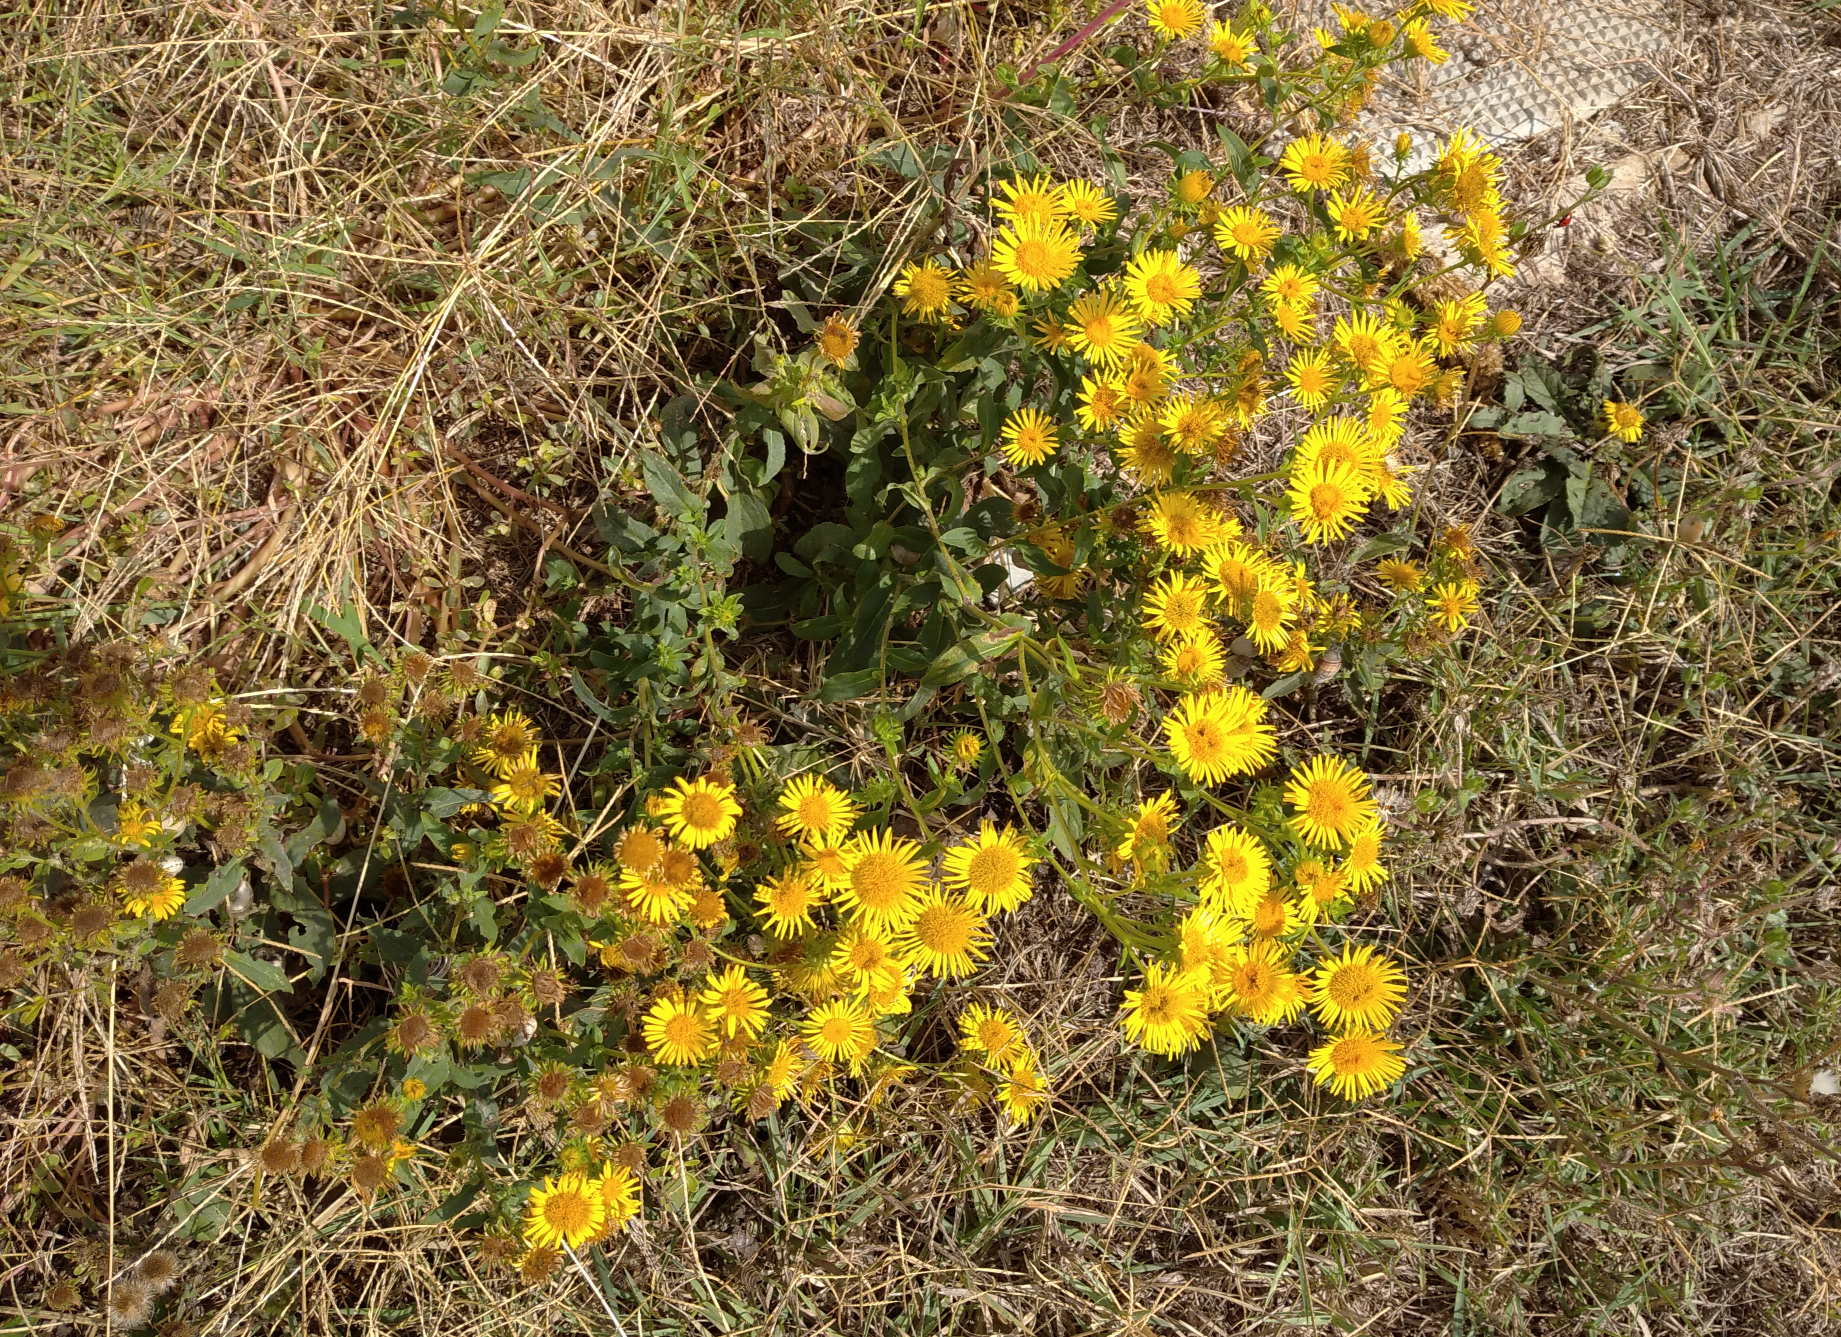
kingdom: Plantae
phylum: Tracheophyta
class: Magnoliopsida
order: Asterales
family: Asteraceae
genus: Pentanema
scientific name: Pentanema britannicum
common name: British elecampane
